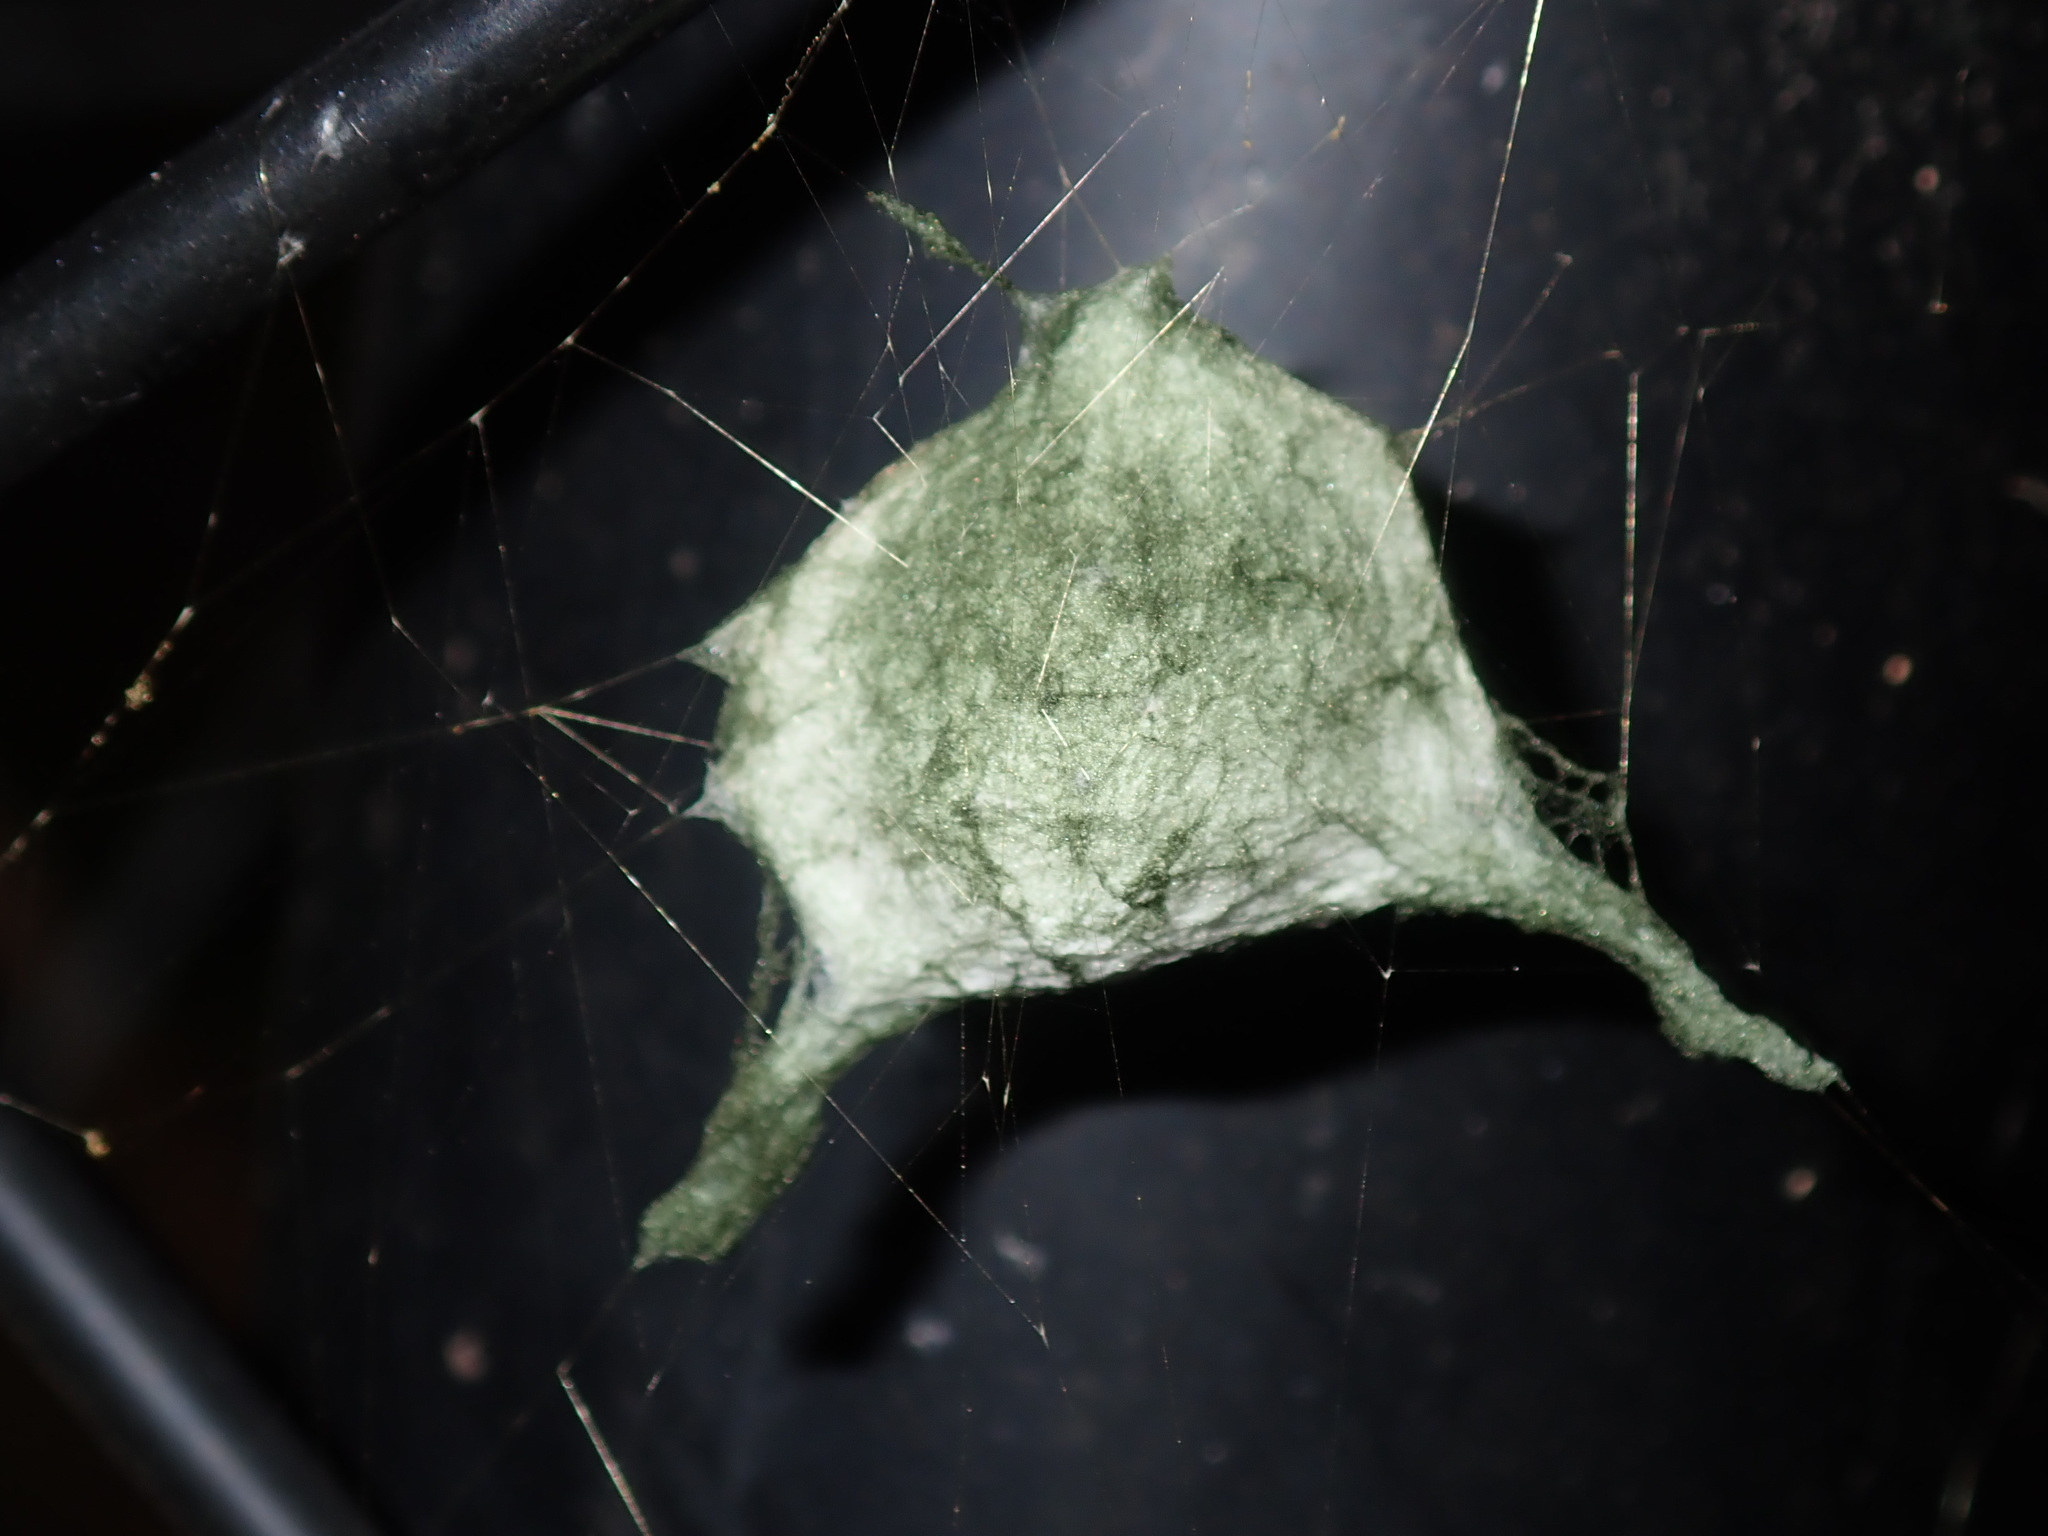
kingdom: Animalia
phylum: Arthropoda
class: Arachnida
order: Araneae
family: Araneidae
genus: Argiope
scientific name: Argiope keyserlingi
